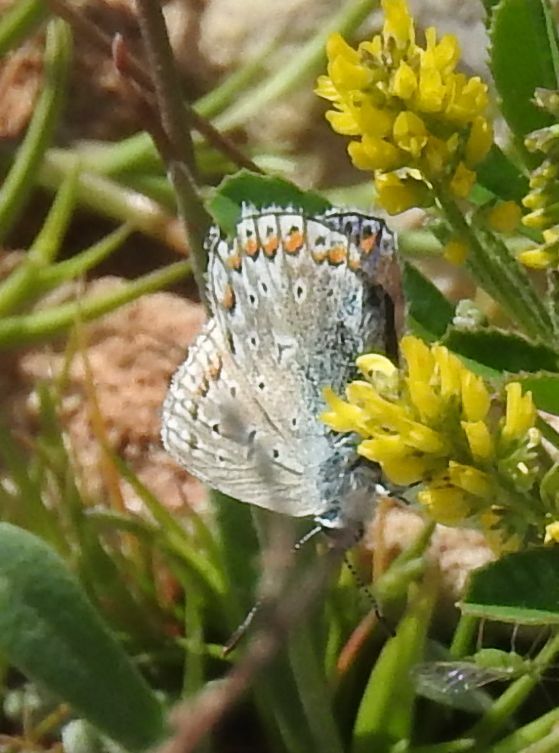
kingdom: Animalia
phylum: Arthropoda
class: Insecta
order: Lepidoptera
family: Lycaenidae
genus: Polyommatus
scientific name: Polyommatus icarus
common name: Common blue
